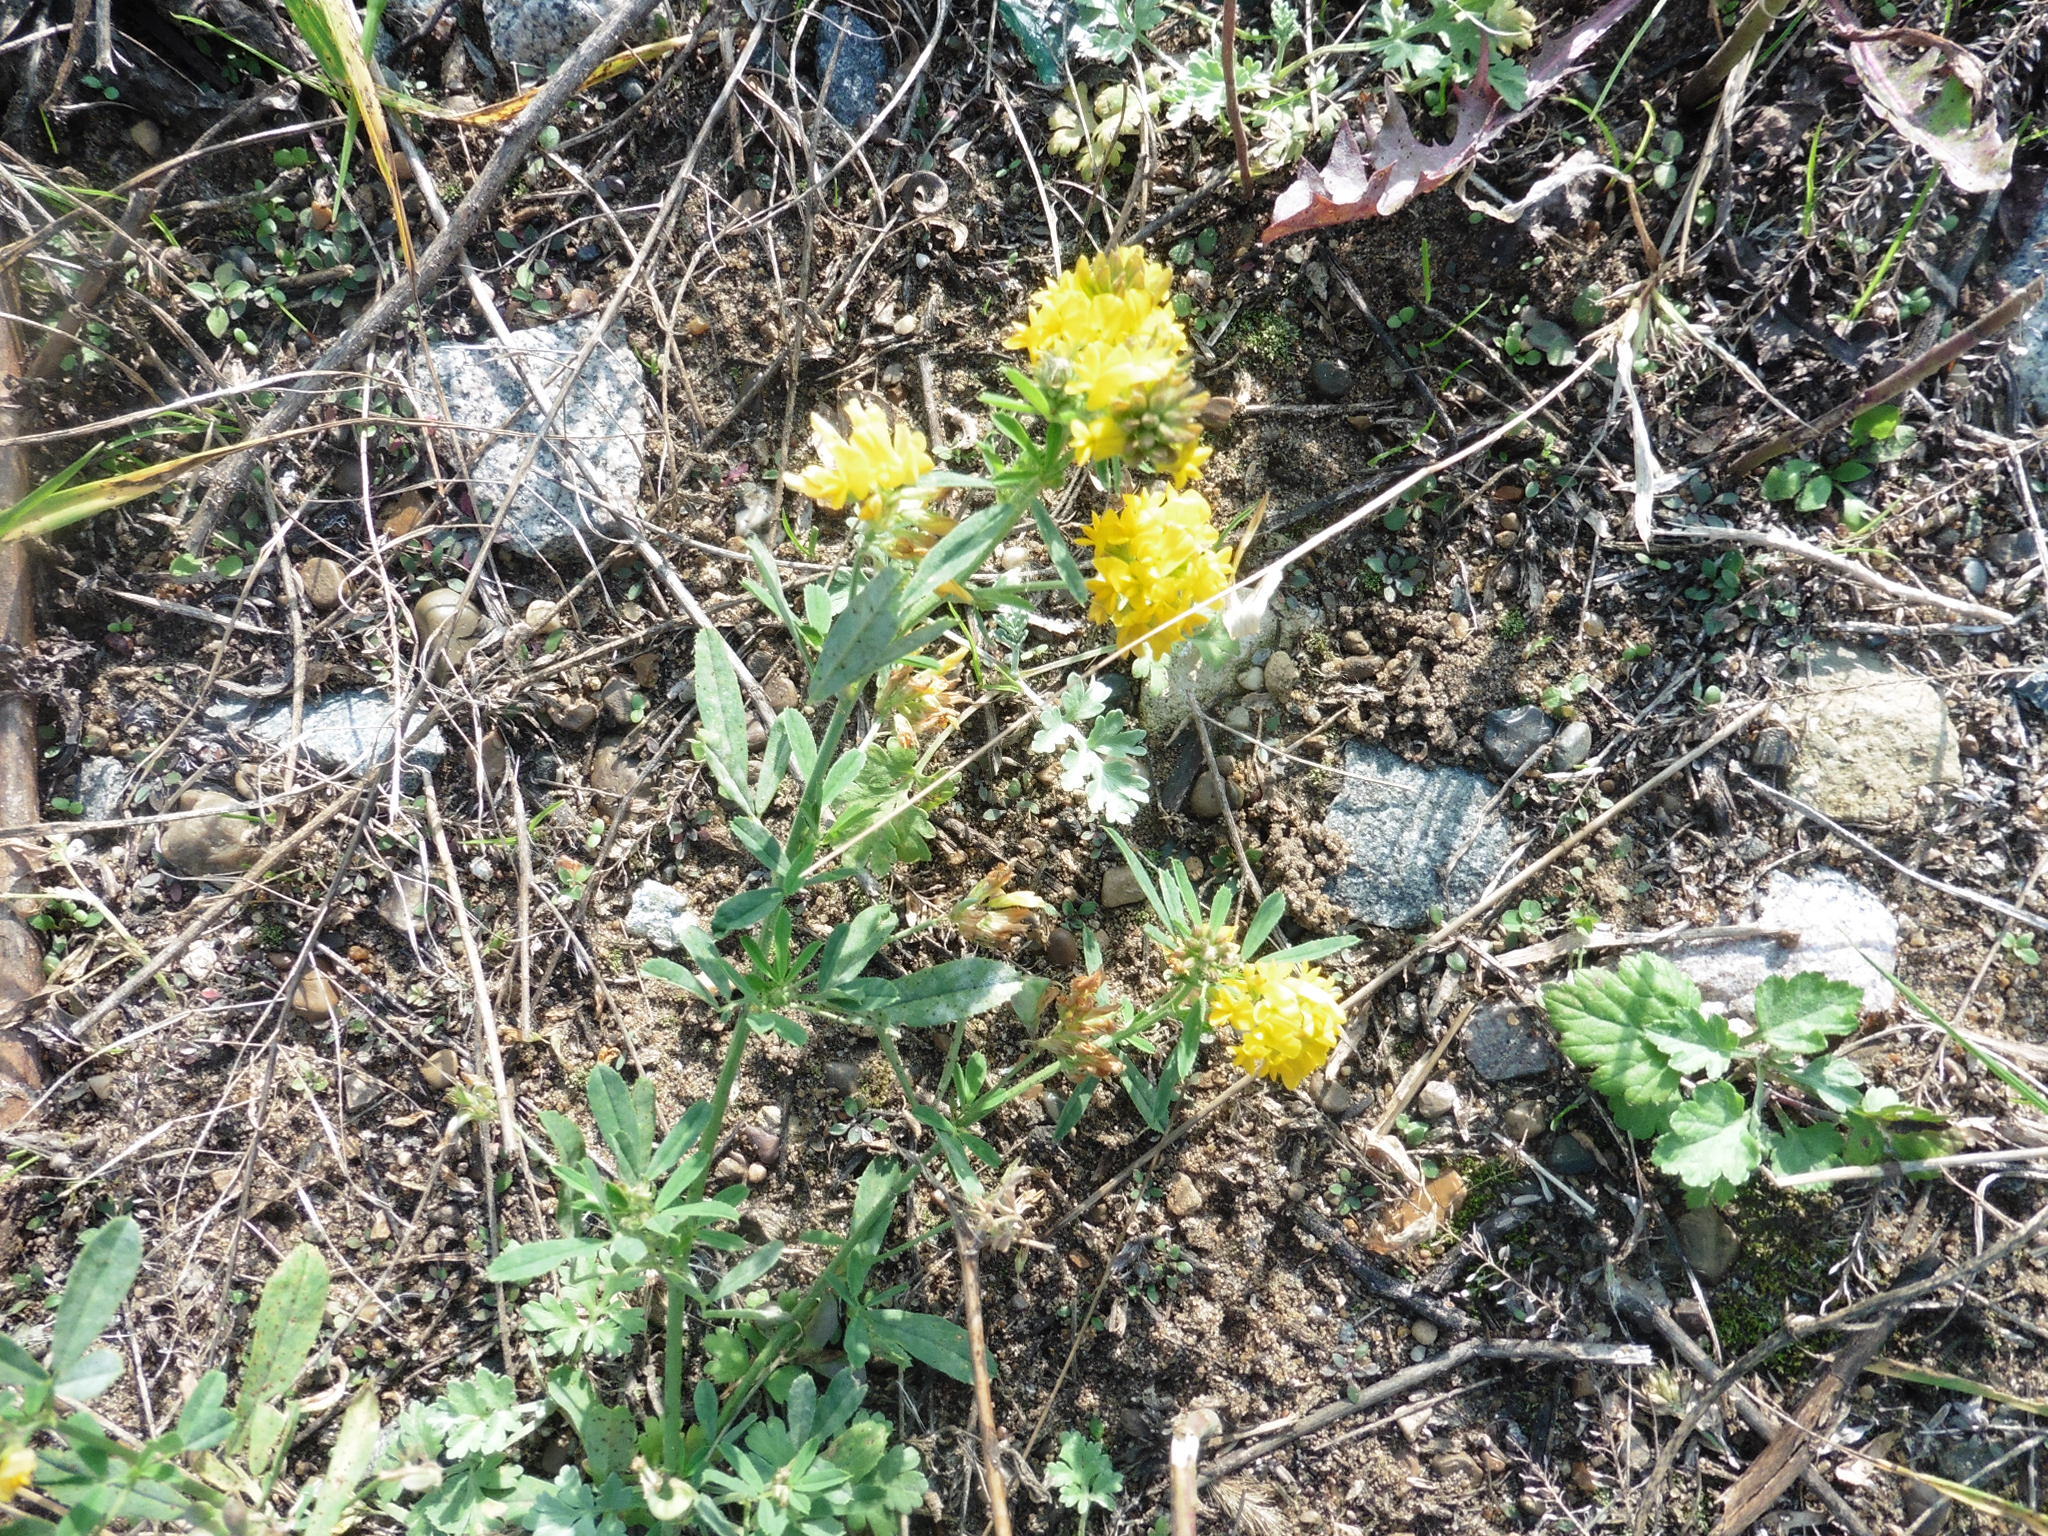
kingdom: Plantae
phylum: Tracheophyta
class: Magnoliopsida
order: Fabales
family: Fabaceae
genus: Medicago
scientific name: Medicago falcata
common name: Sickle medick
